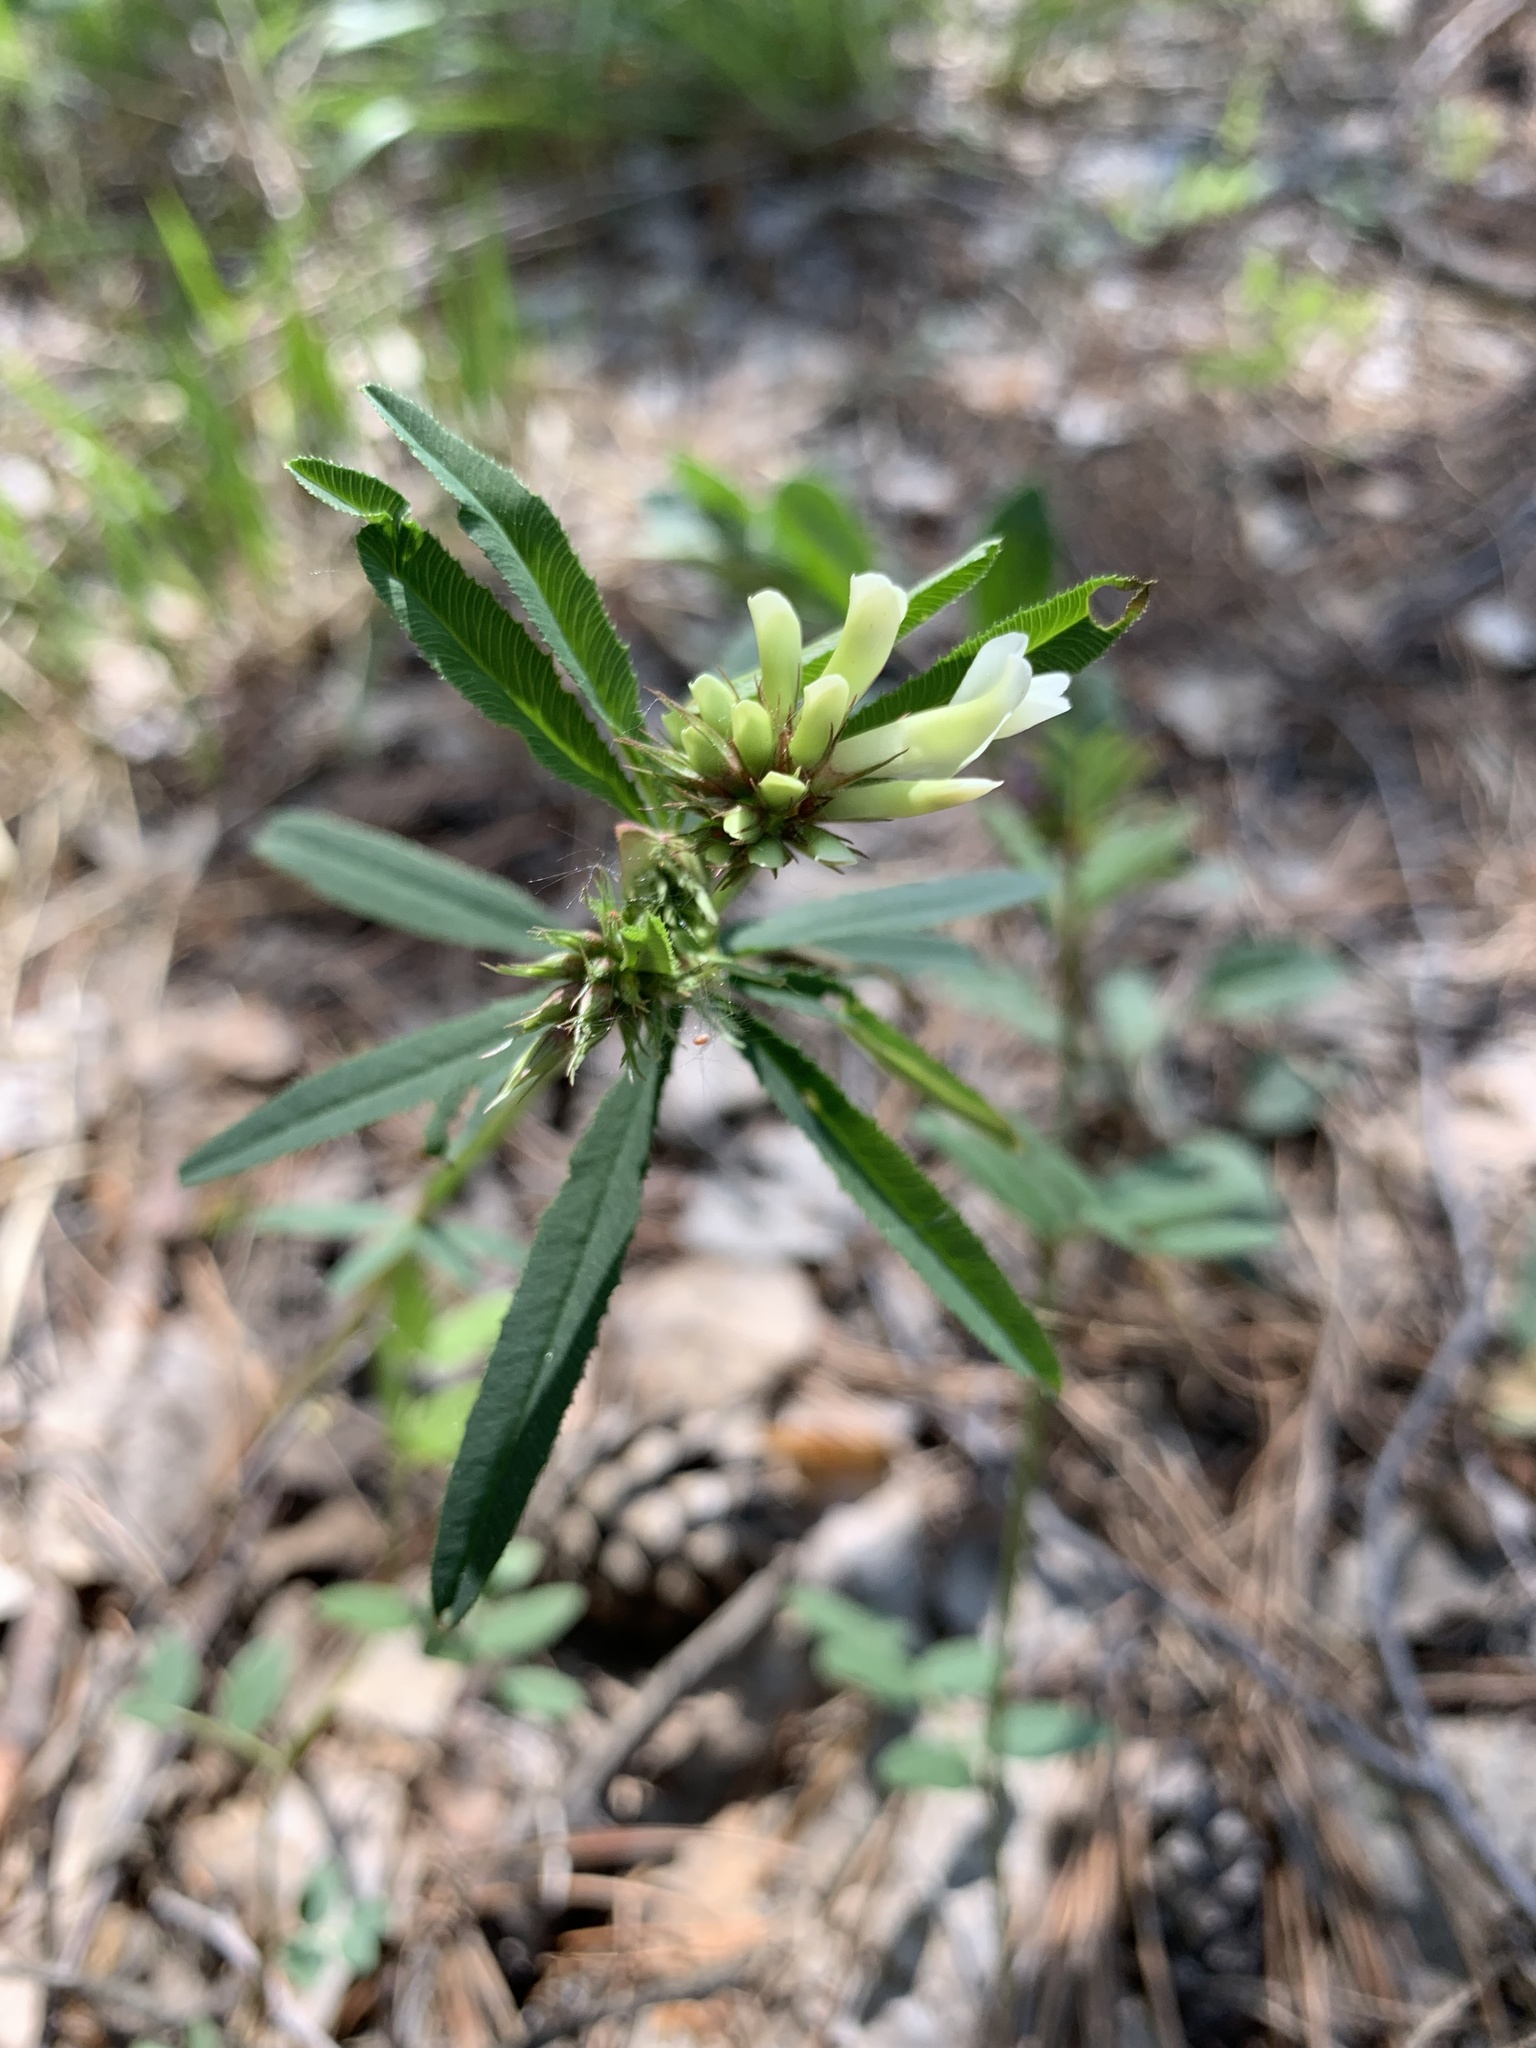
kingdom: Plantae
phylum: Tracheophyta
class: Magnoliopsida
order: Fabales
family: Fabaceae
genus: Trifolium
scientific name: Trifolium lupinaster
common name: Lupine clover
